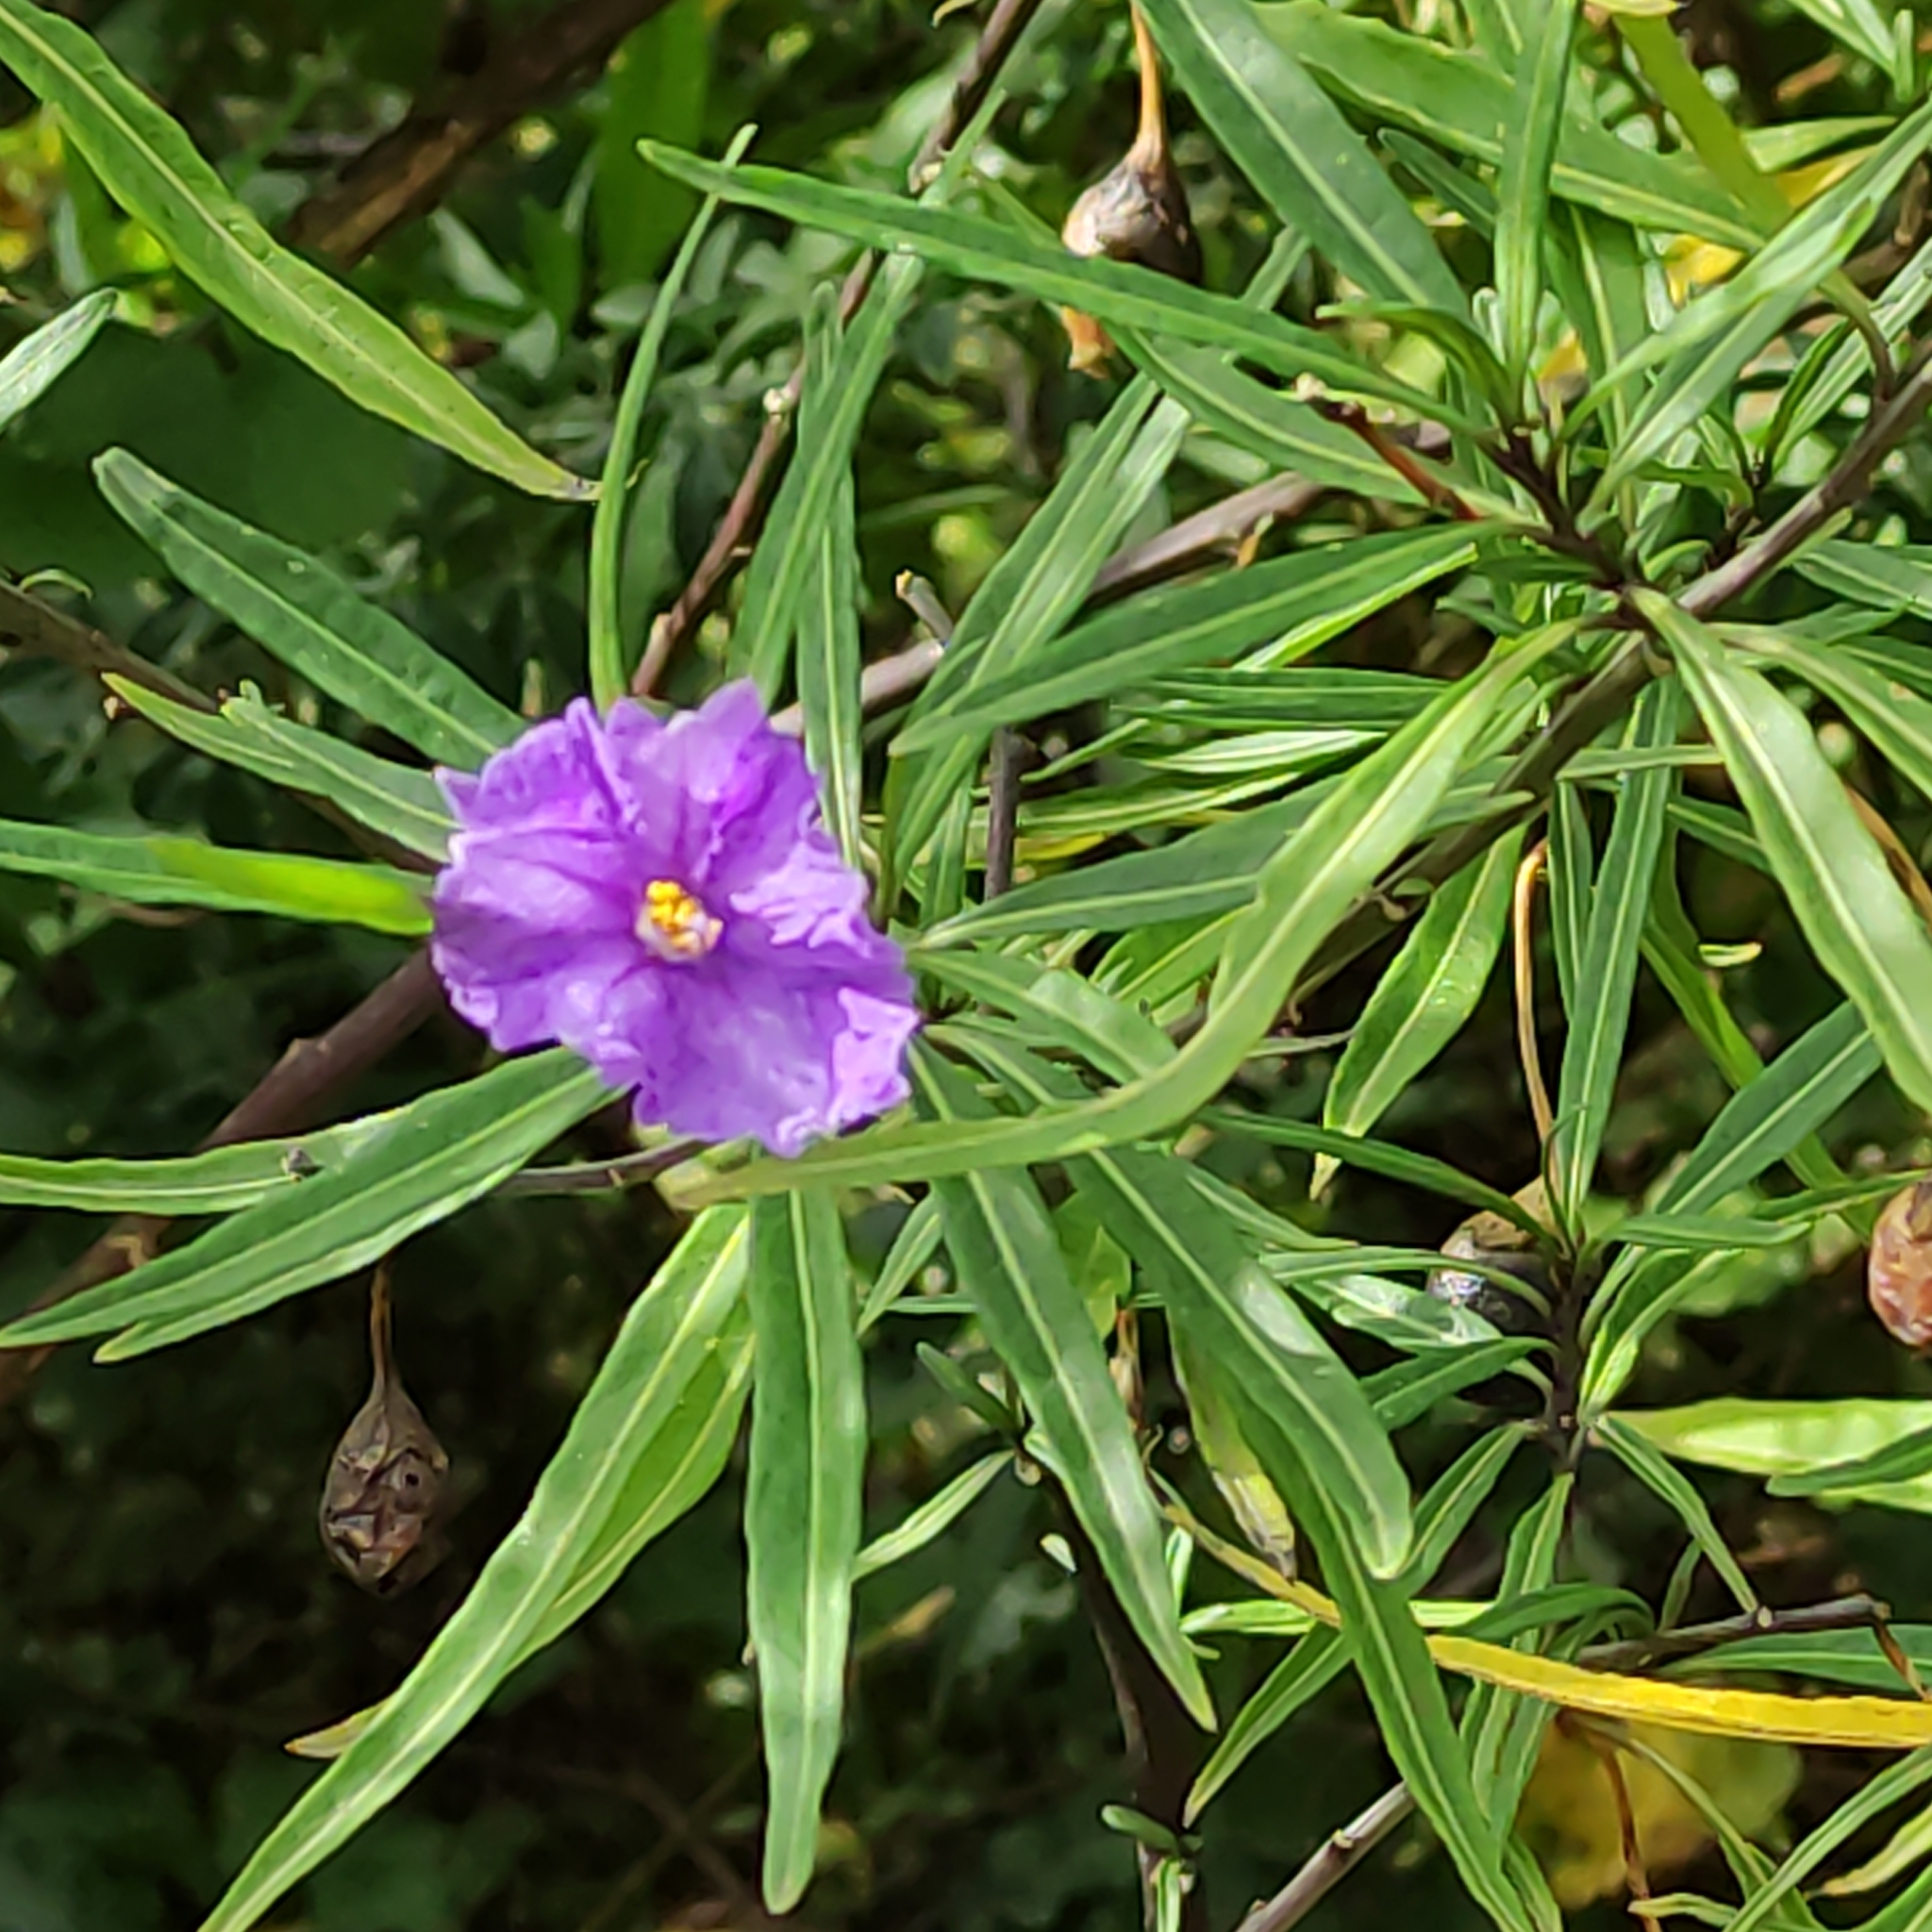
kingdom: Plantae
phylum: Tracheophyta
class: Magnoliopsida
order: Solanales
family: Solanaceae
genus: Solanum
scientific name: Solanum laciniatum
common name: Kangaroo-apple
